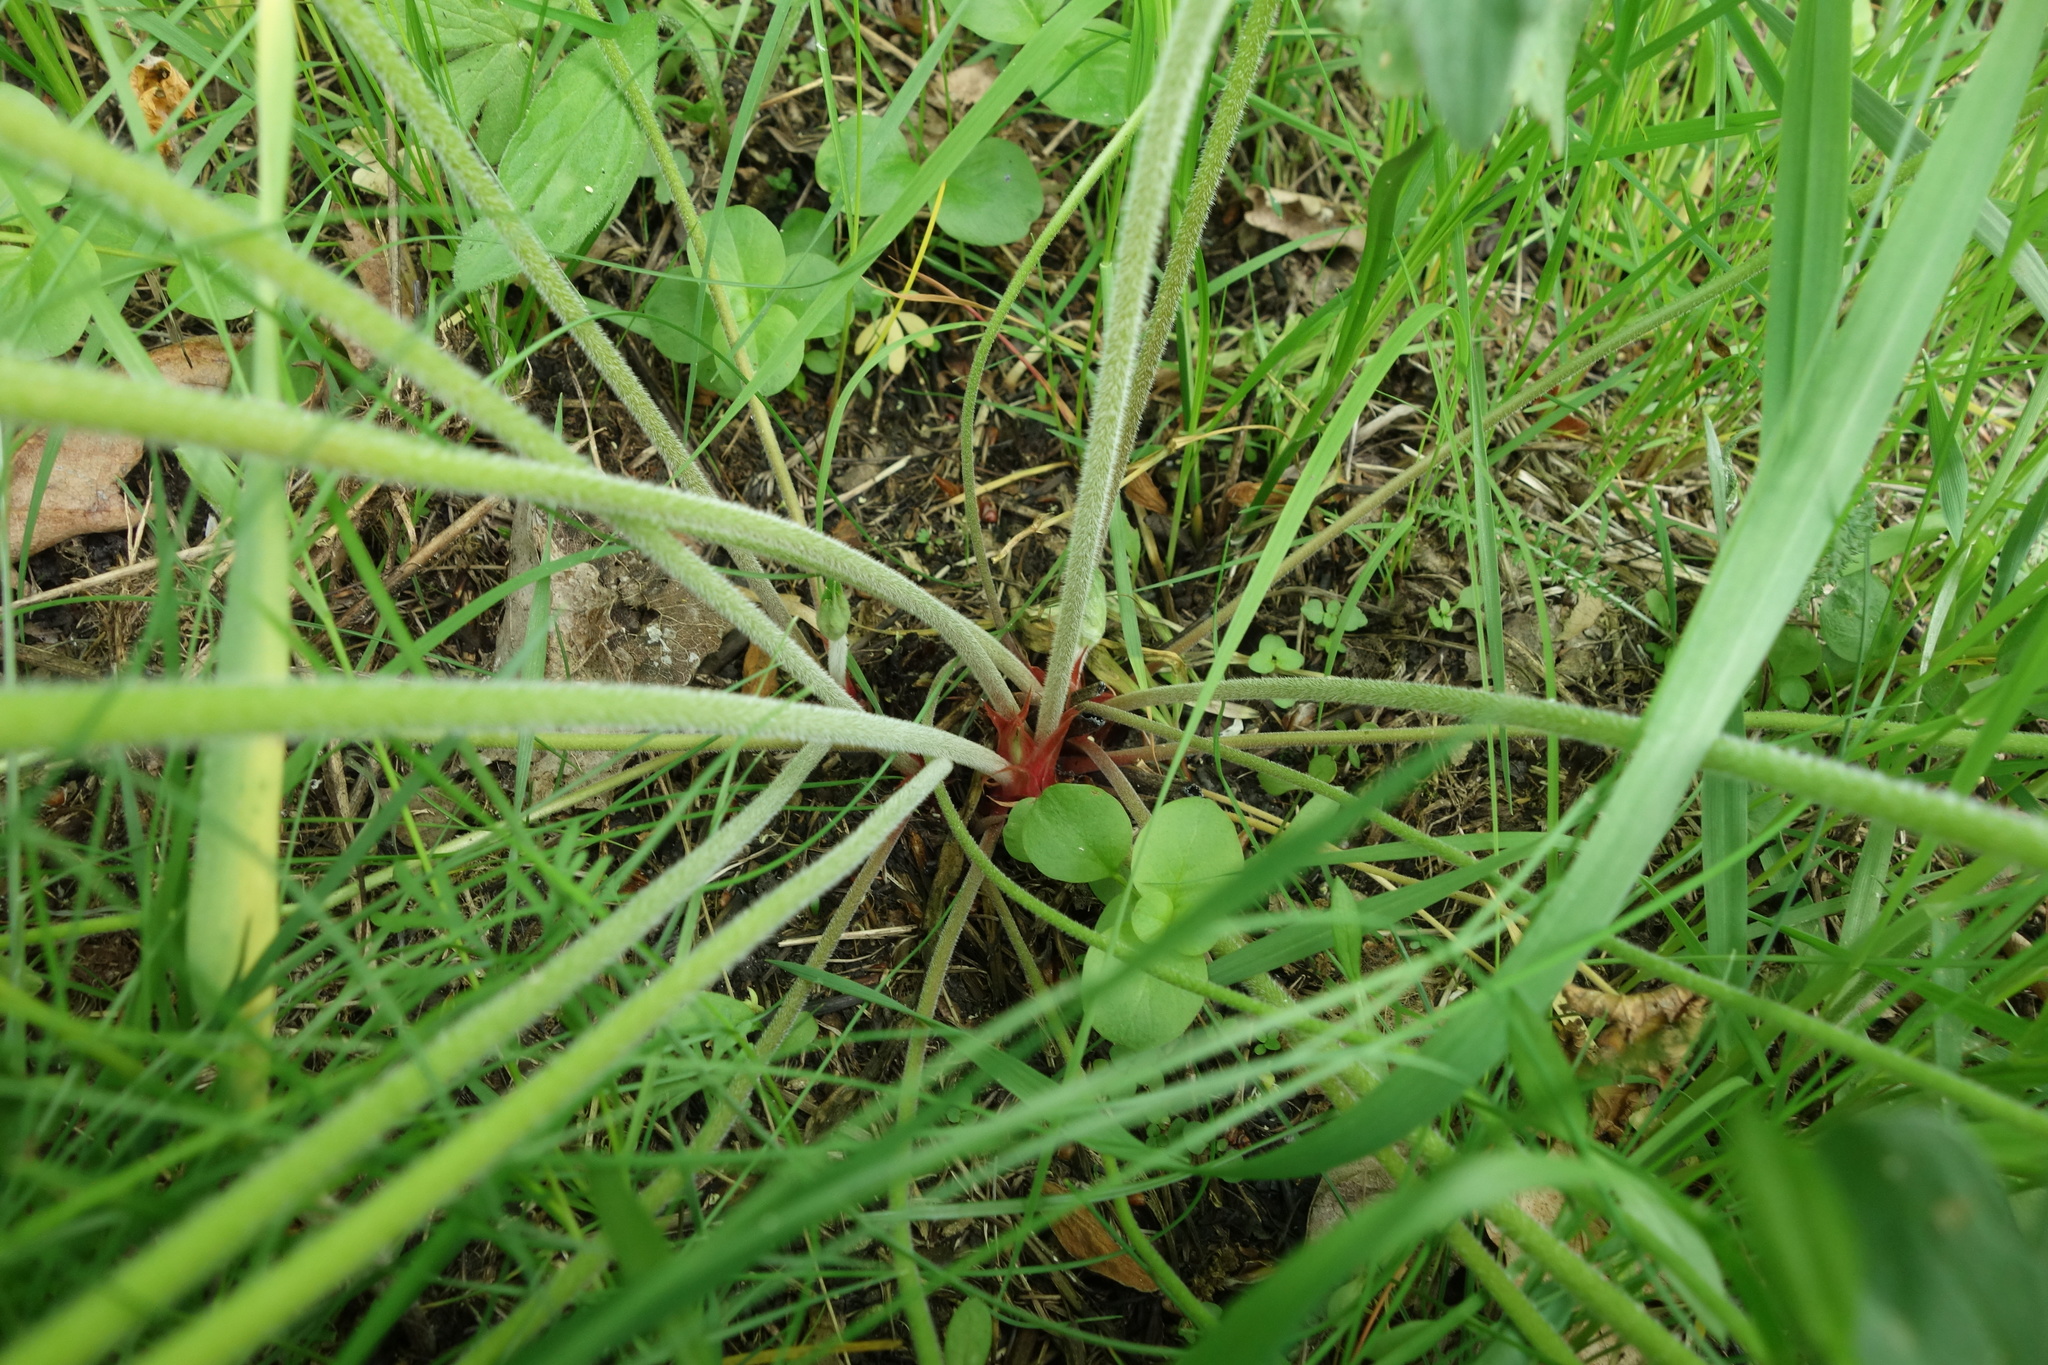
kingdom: Plantae
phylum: Tracheophyta
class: Magnoliopsida
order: Geraniales
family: Geraniaceae
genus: Geranium
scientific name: Geranium pratense
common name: Meadow crane's-bill
